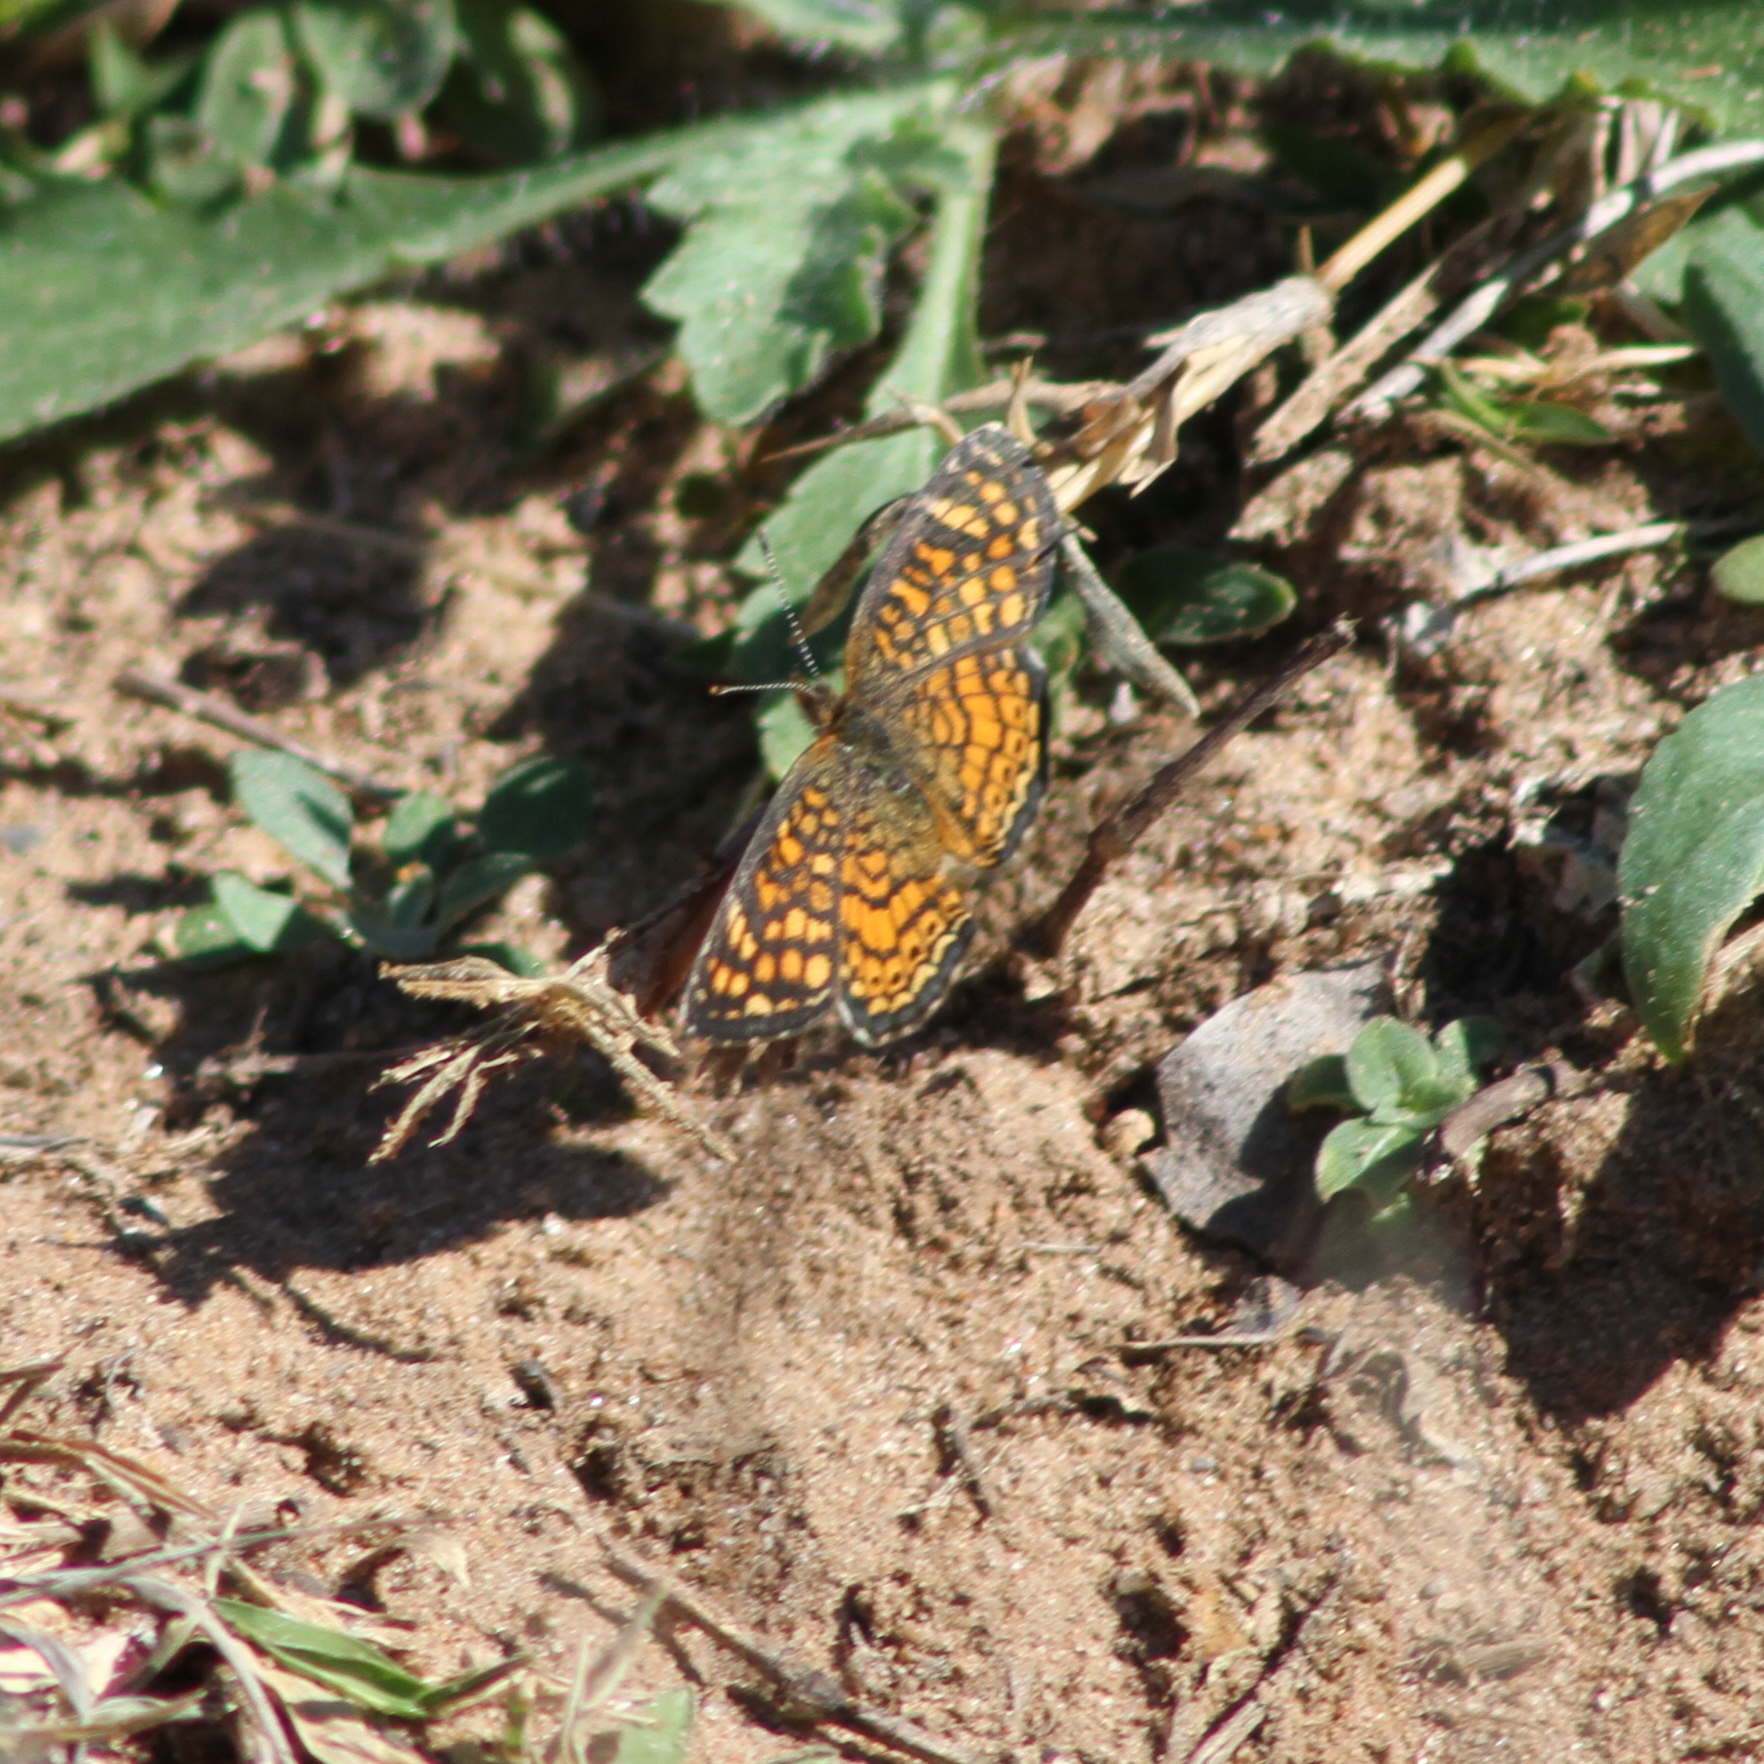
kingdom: Animalia
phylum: Arthropoda
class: Insecta
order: Lepidoptera
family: Nymphalidae
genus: Phyciodes
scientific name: Phyciodes vesta
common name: Vesta crescent
